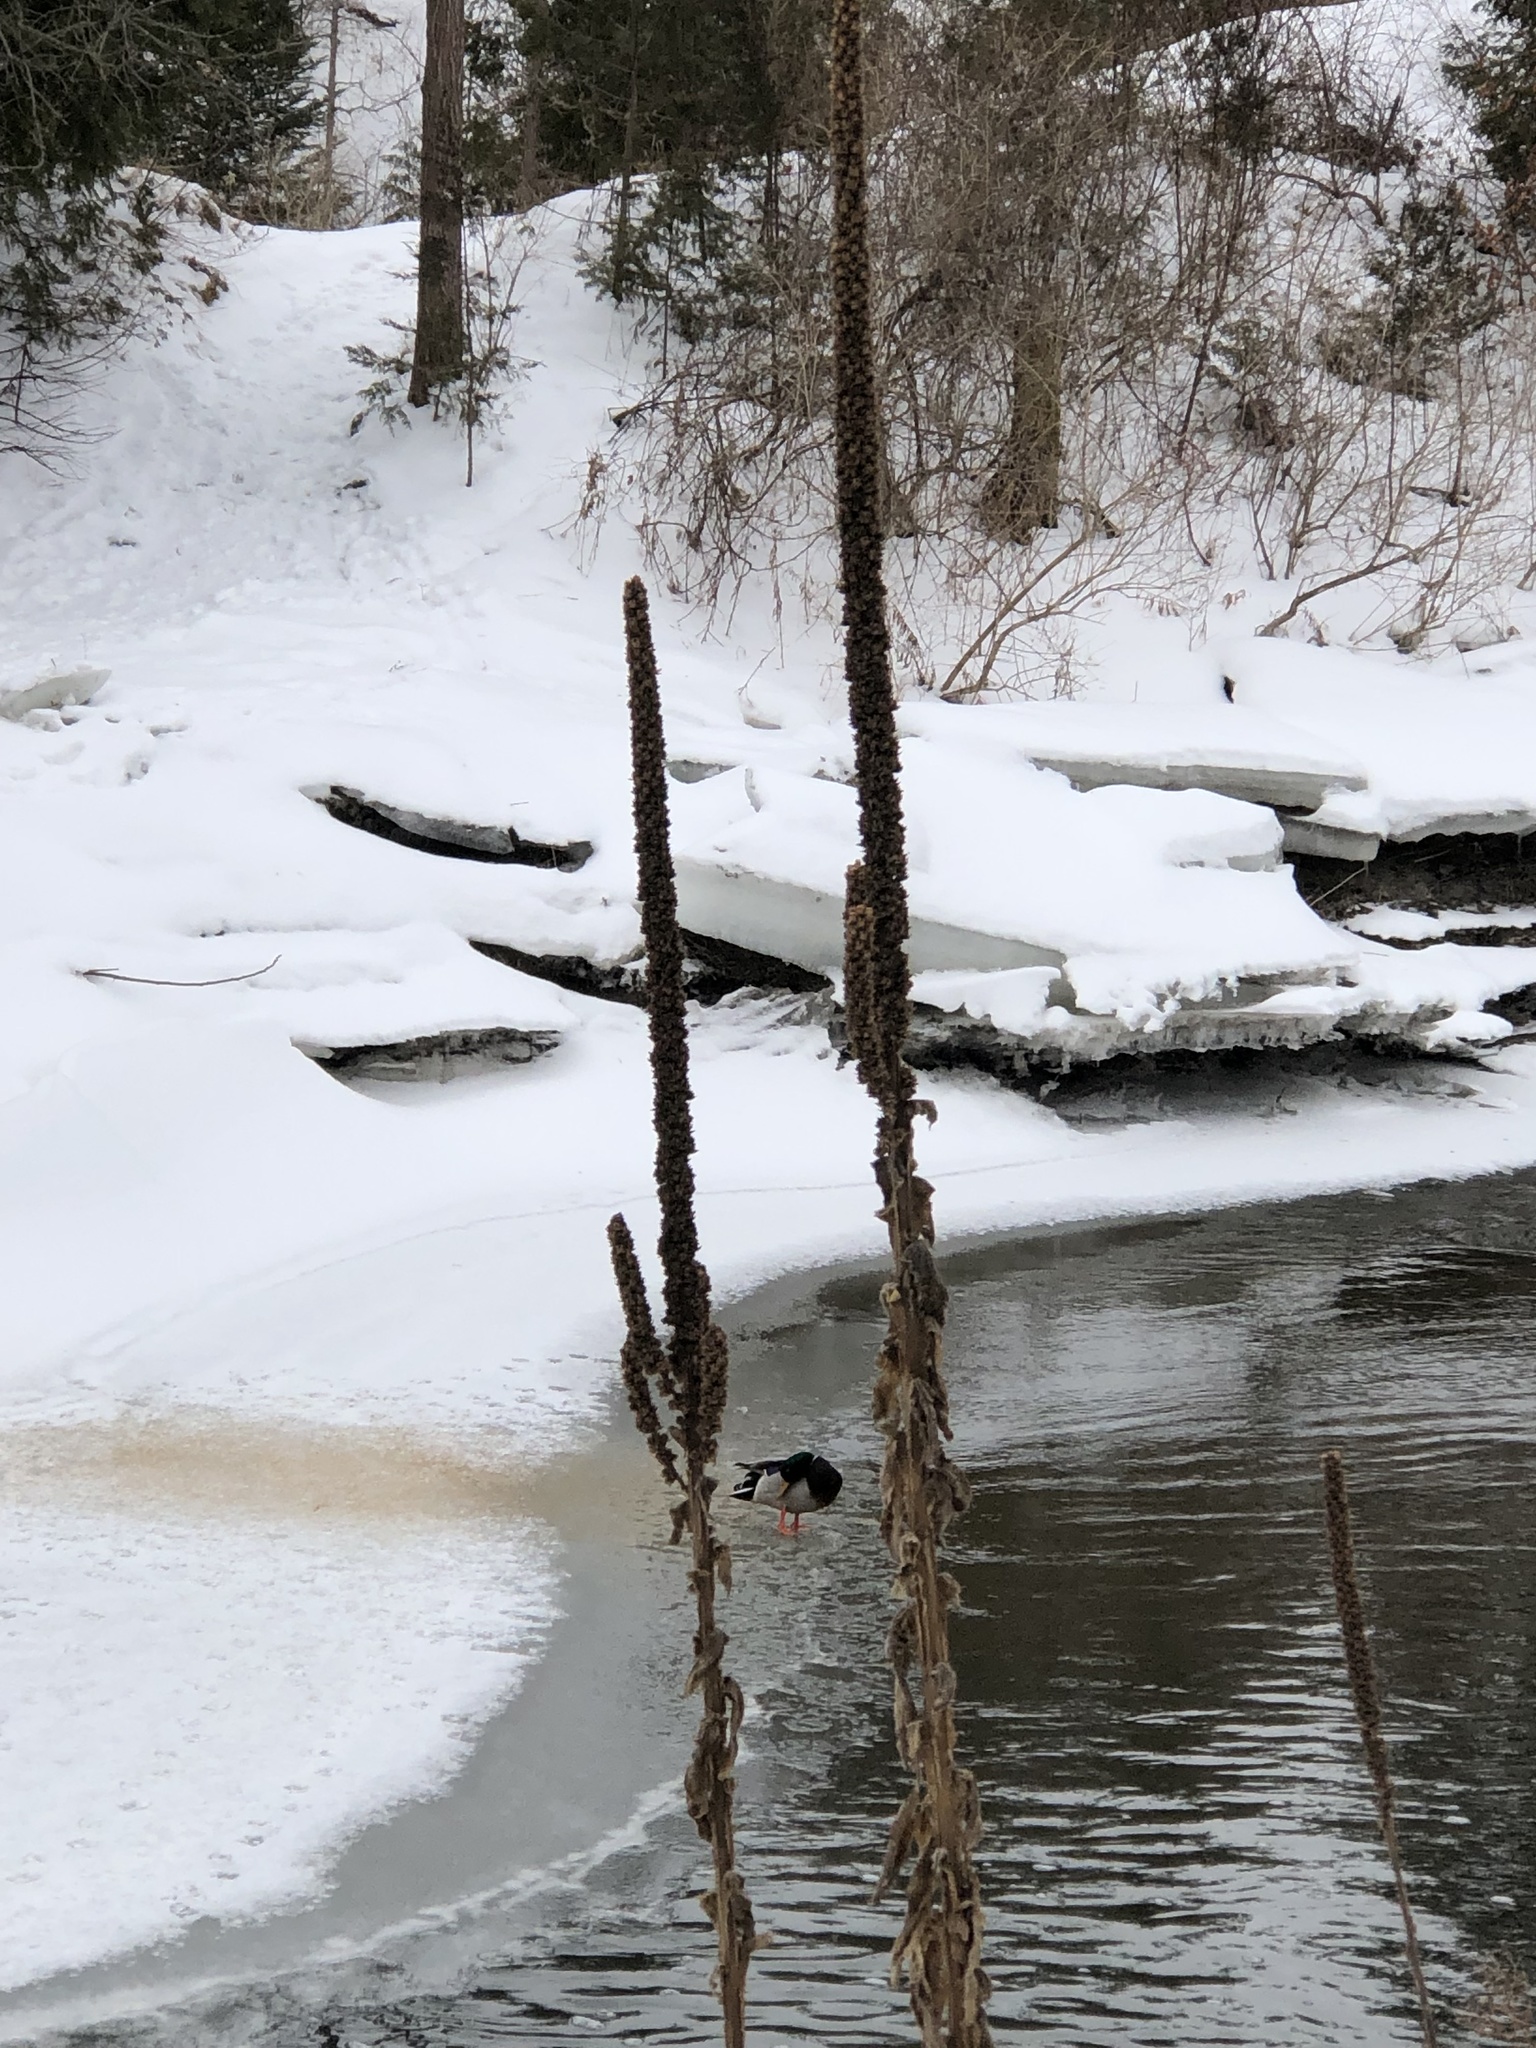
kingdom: Plantae
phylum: Tracheophyta
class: Magnoliopsida
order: Lamiales
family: Scrophulariaceae
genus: Verbascum
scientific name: Verbascum thapsus
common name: Common mullein
